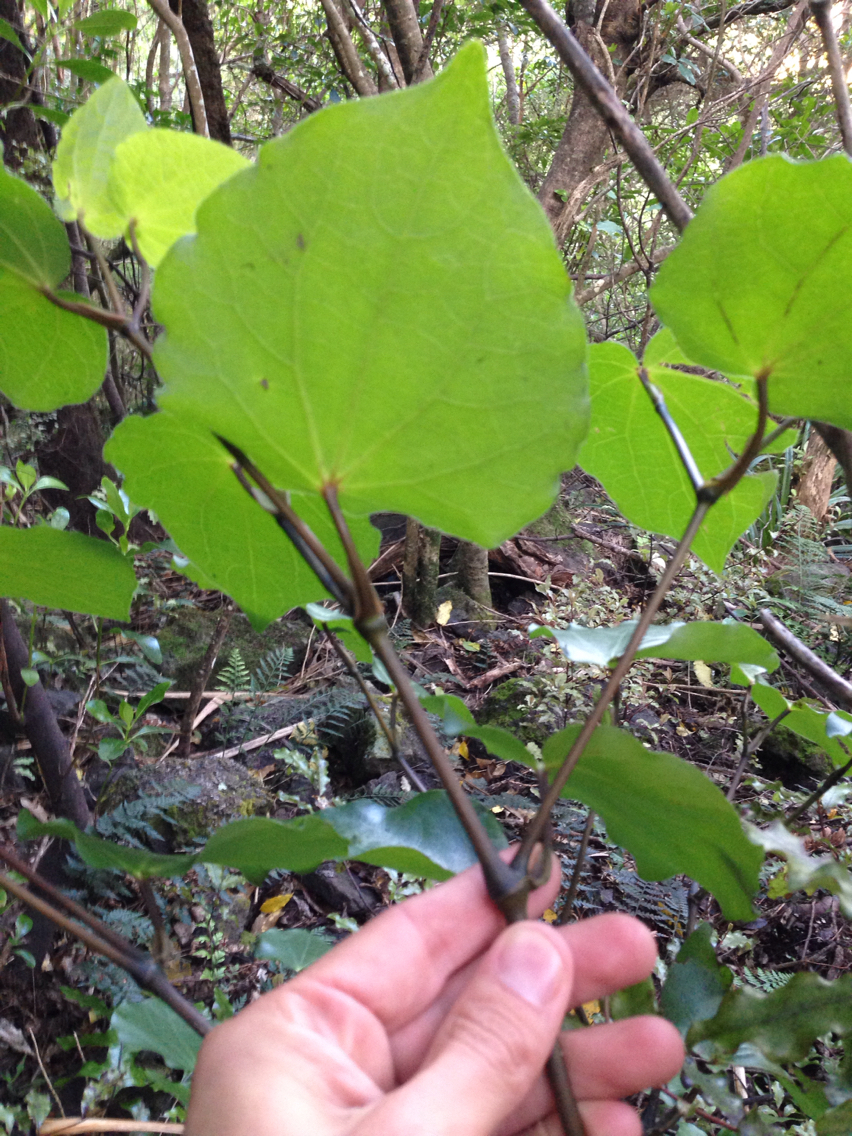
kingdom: Plantae
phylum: Tracheophyta
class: Magnoliopsida
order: Piperales
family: Piperaceae
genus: Macropiper
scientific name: Macropiper excelsum
